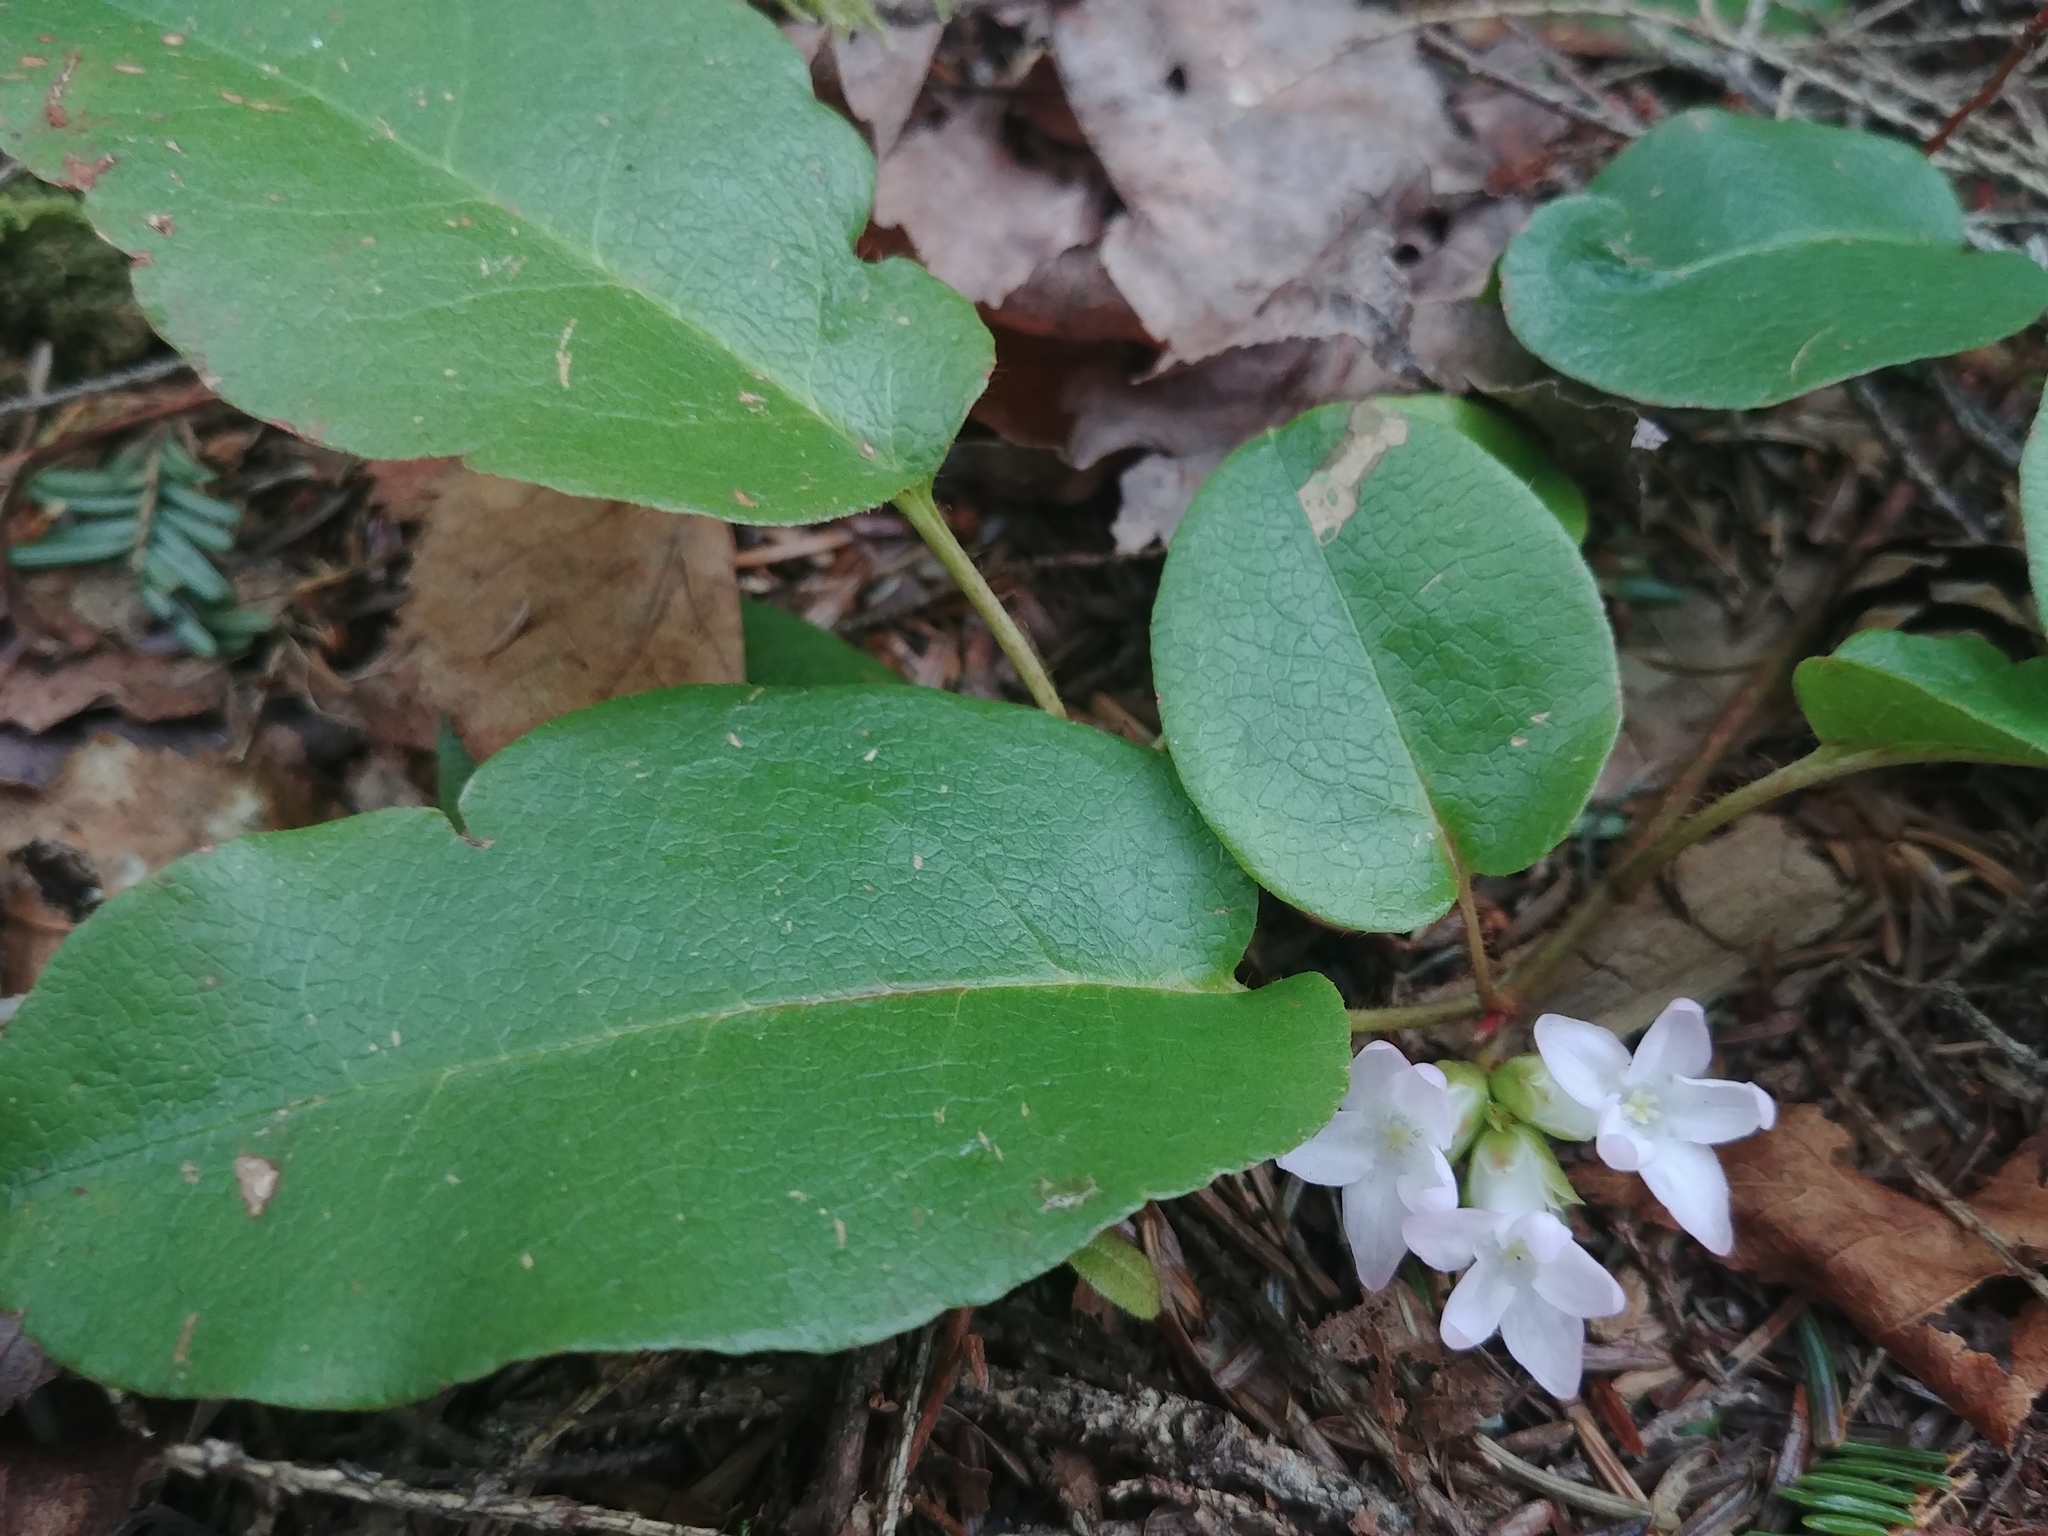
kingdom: Plantae
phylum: Tracheophyta
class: Magnoliopsida
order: Ericales
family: Ericaceae
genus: Epigaea
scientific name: Epigaea repens
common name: Gravelroot
